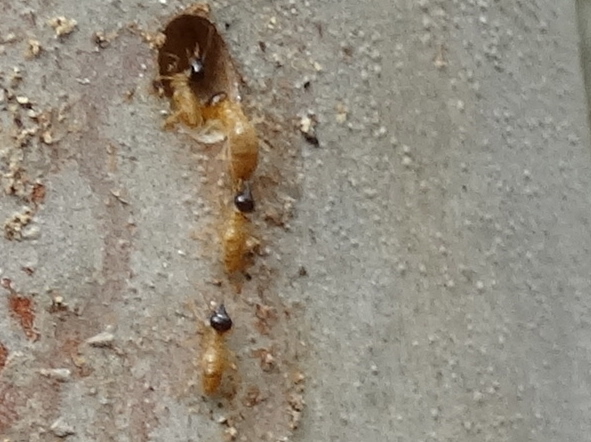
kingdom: Animalia
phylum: Arthropoda
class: Insecta
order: Blattodea
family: Termitidae
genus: Nasutitermes
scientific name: Nasutitermes
